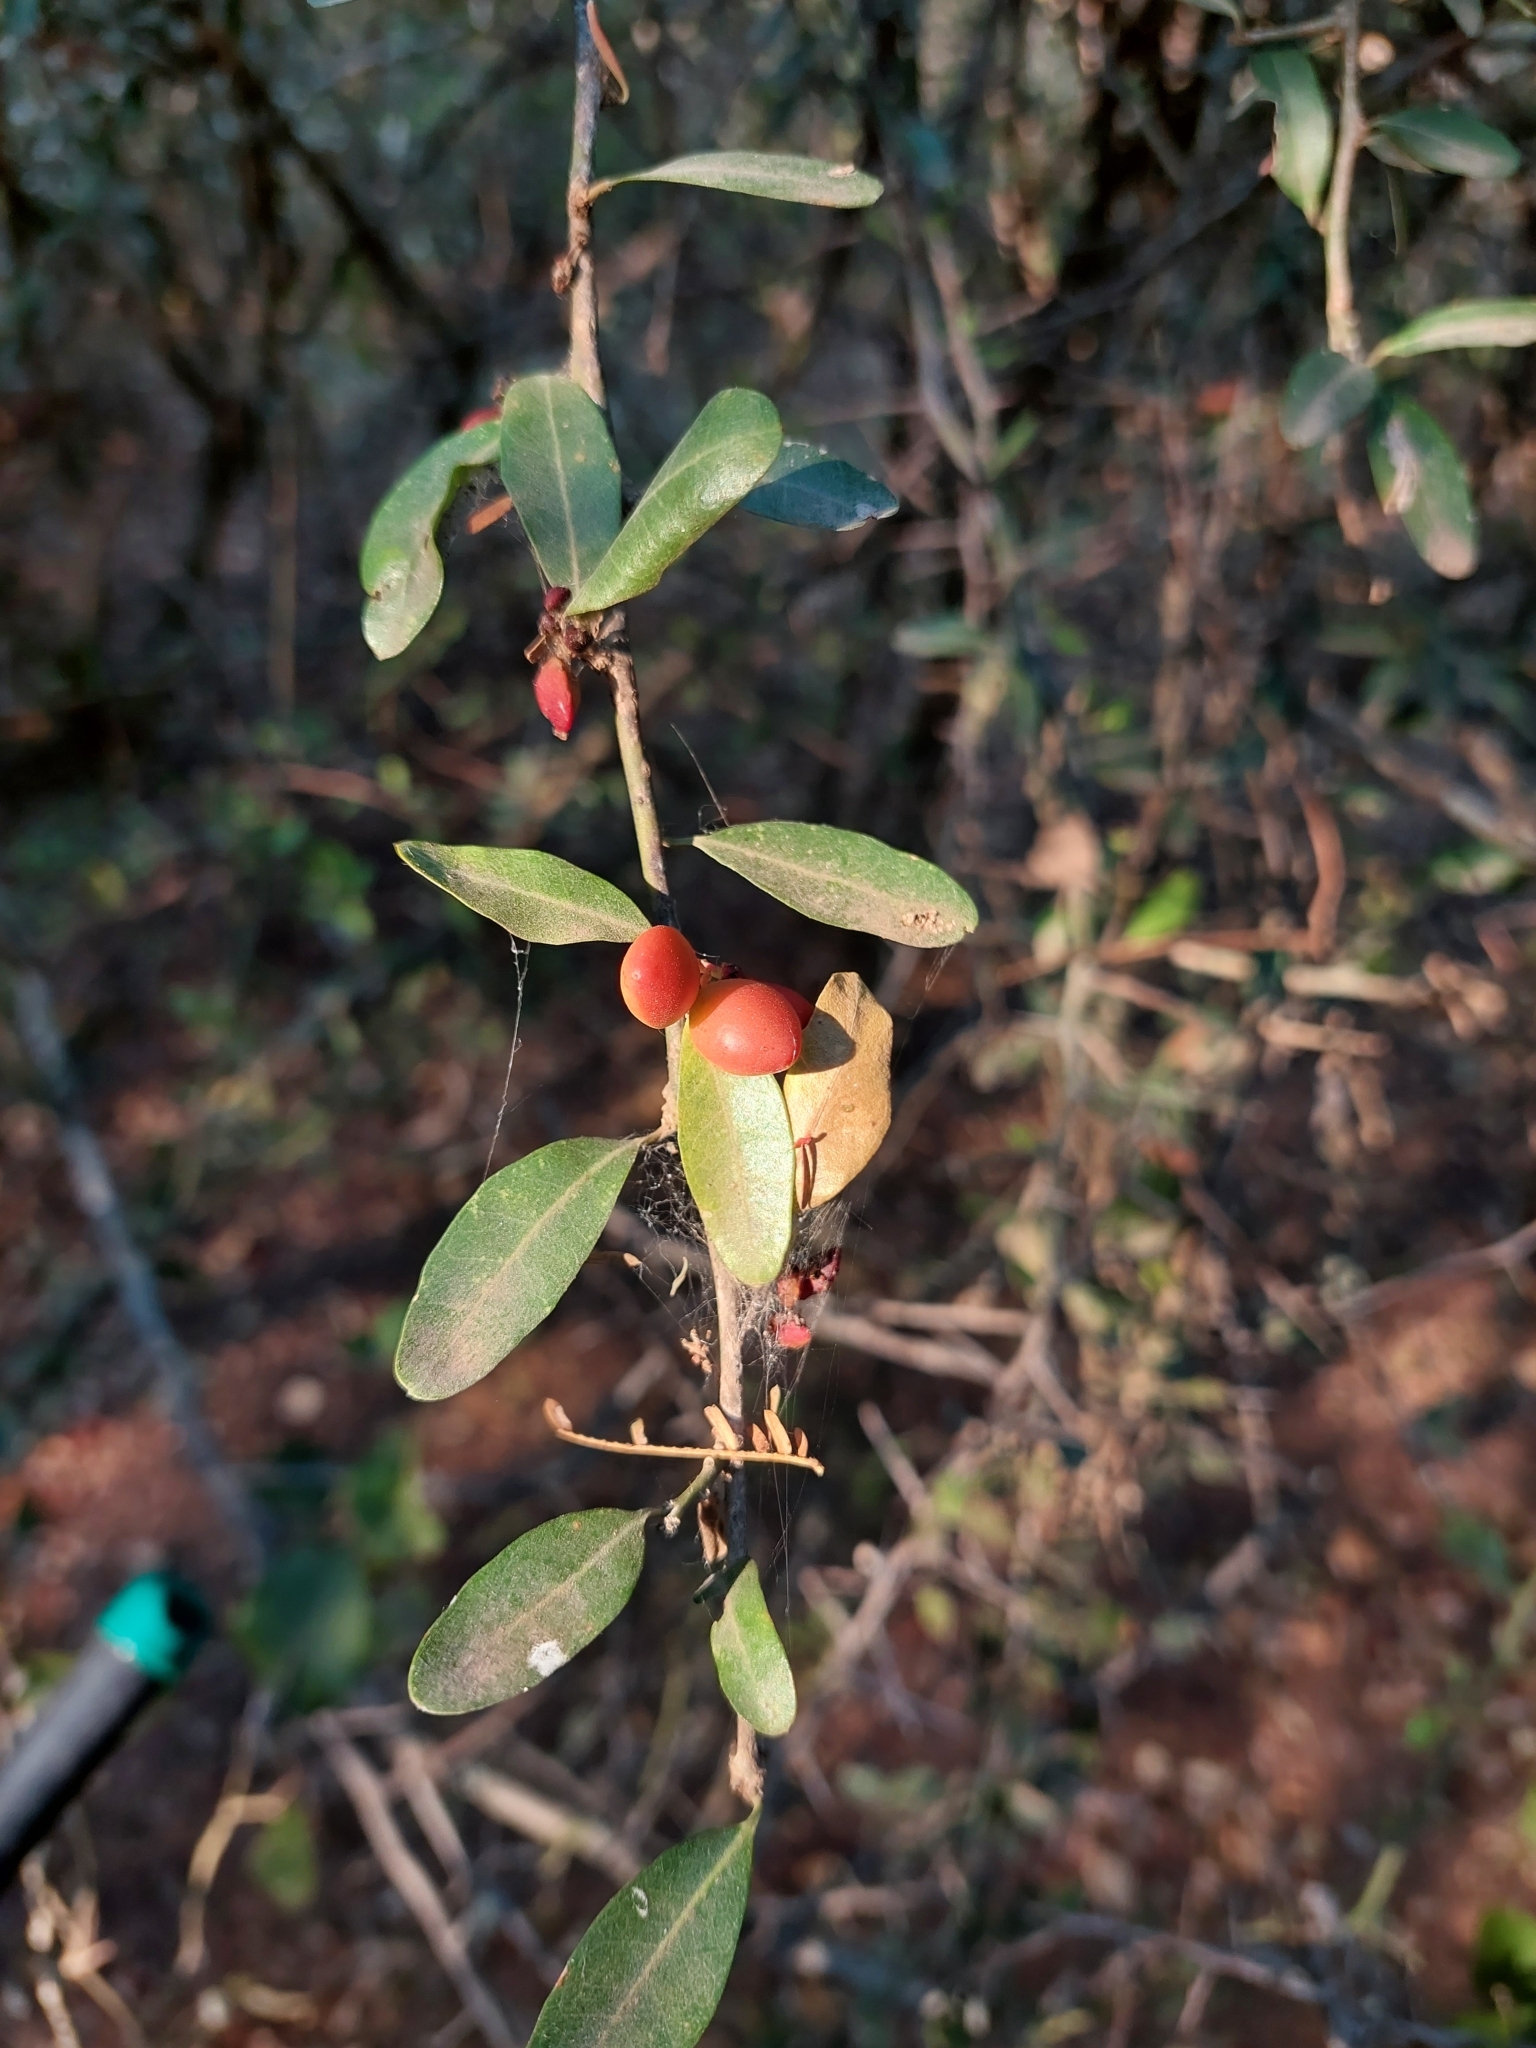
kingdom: Plantae
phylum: Tracheophyta
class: Magnoliopsida
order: Sapindales
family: Simaroubaceae
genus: Castela
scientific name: Castela coccinea
